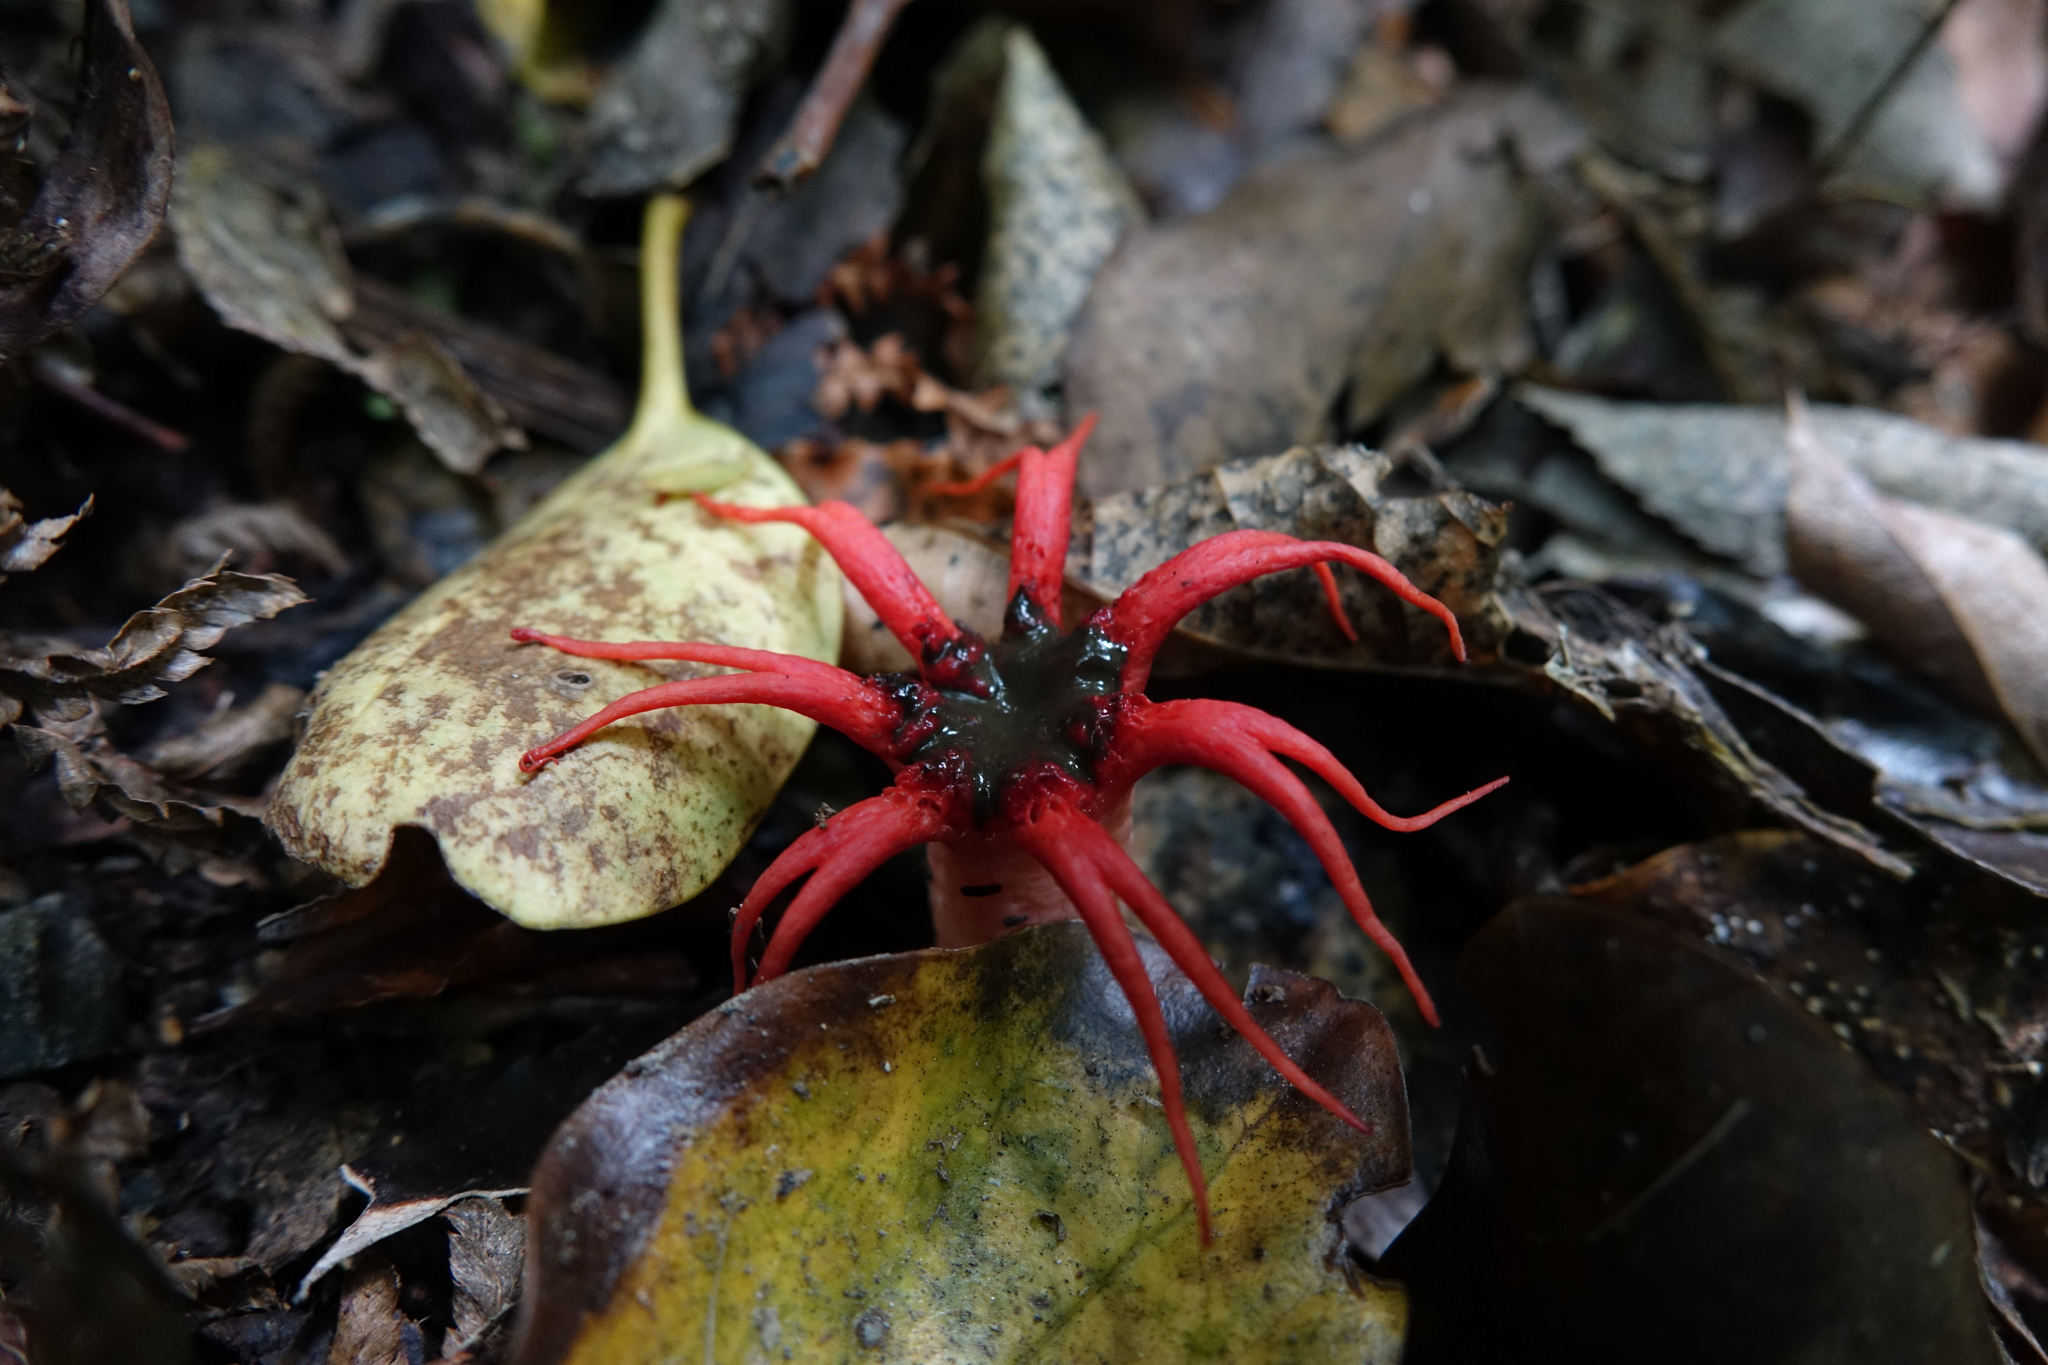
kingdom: Fungi
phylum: Basidiomycota
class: Agaricomycetes
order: Phallales
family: Phallaceae
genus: Aseroe
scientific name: Aseroe rubra
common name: Starfish fungus
